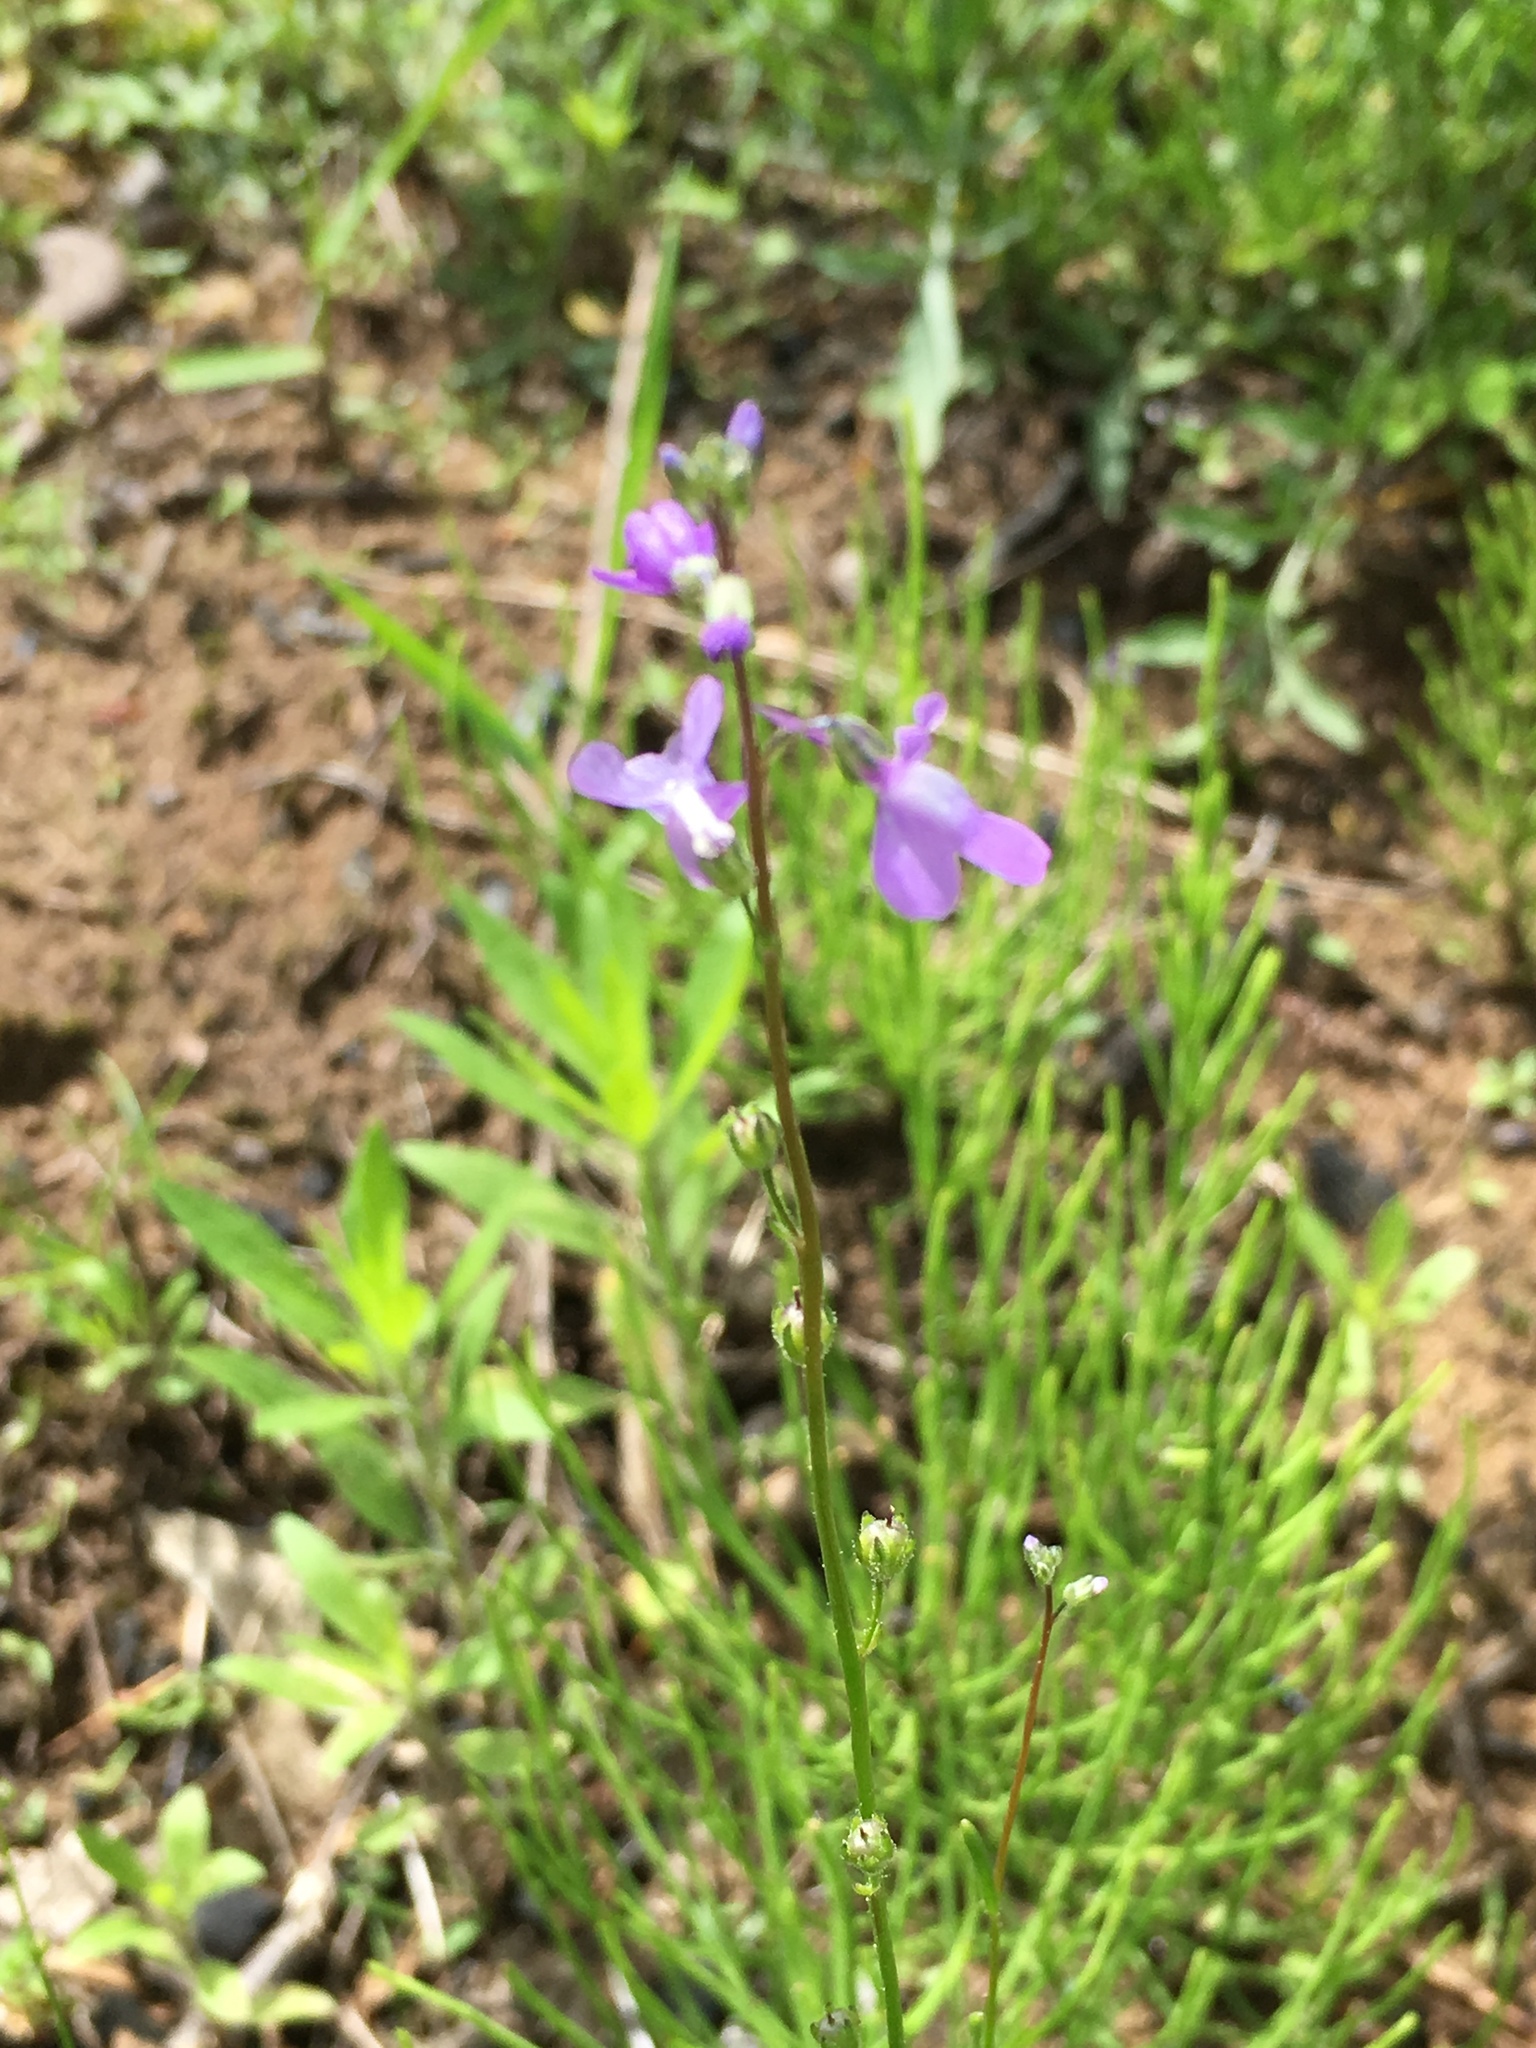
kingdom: Plantae
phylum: Tracheophyta
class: Magnoliopsida
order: Lamiales
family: Plantaginaceae
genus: Nuttallanthus
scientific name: Nuttallanthus canadensis
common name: Blue toadflax
